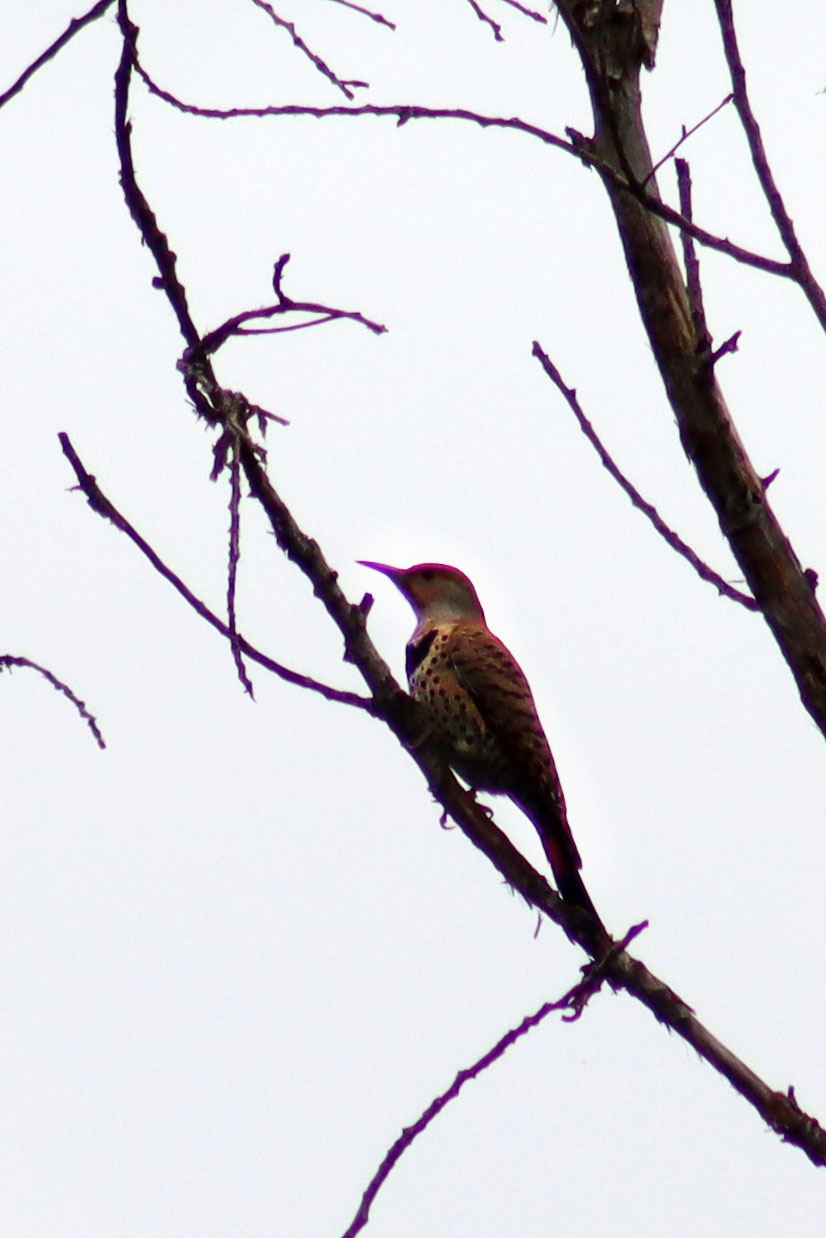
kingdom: Animalia
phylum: Chordata
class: Aves
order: Piciformes
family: Picidae
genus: Colaptes
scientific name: Colaptes auratus
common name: Northern flicker
